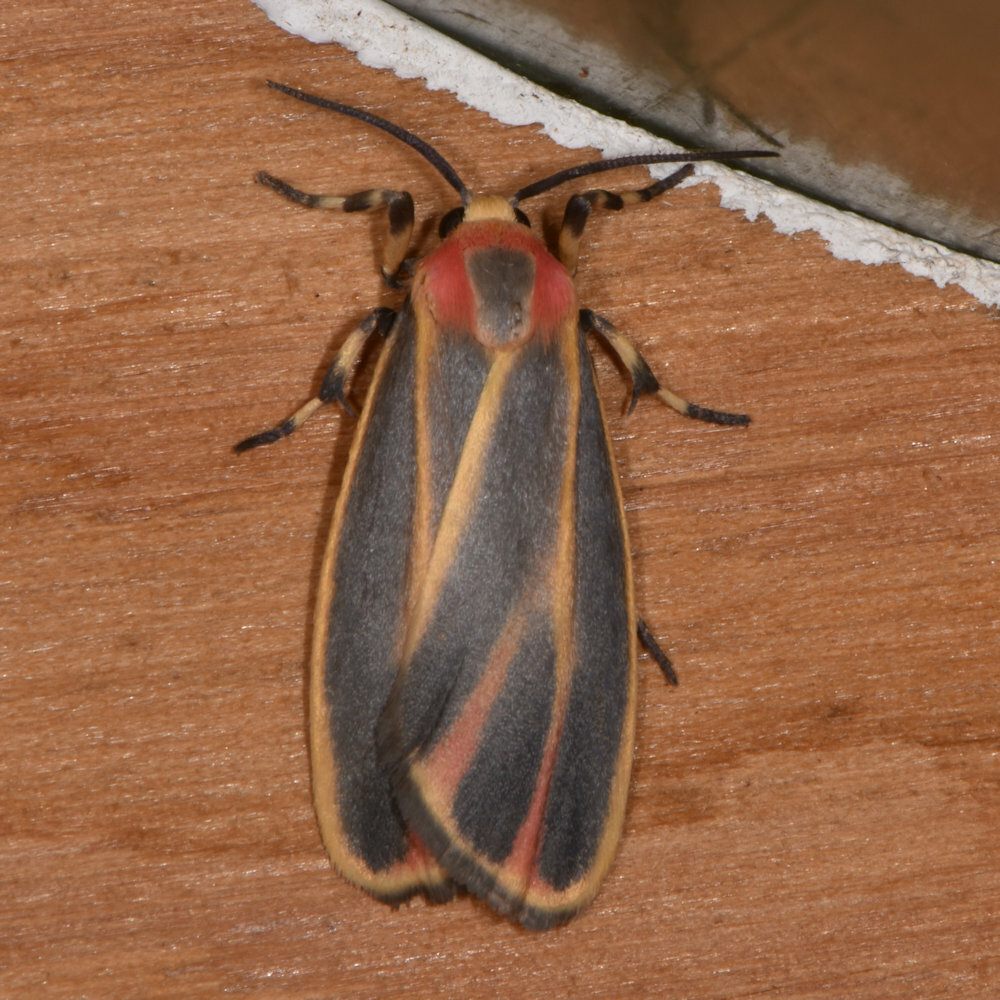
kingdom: Animalia
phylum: Arthropoda
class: Insecta
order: Lepidoptera
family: Erebidae
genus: Hypoprepia
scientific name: Hypoprepia fucosa
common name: Painted lichen moth
